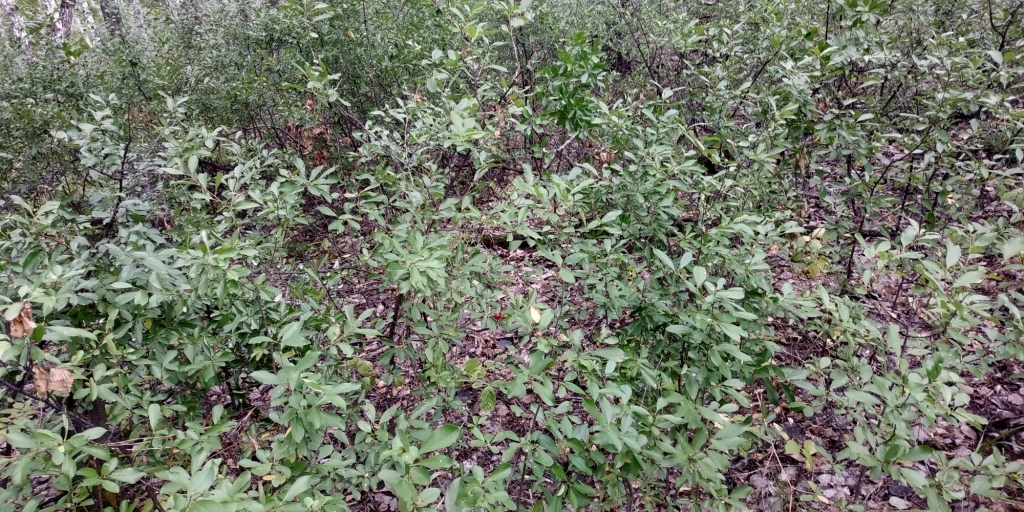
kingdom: Plantae
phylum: Tracheophyta
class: Magnoliopsida
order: Rosales
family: Rosaceae
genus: Prunus
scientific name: Prunus fruticosa
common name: European dwarf cherry
